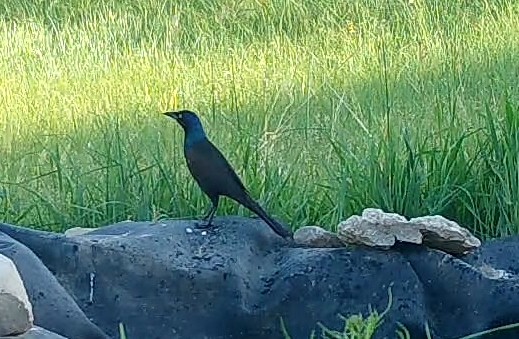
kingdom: Animalia
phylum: Chordata
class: Aves
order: Passeriformes
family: Icteridae
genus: Quiscalus
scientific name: Quiscalus quiscula
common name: Common grackle
